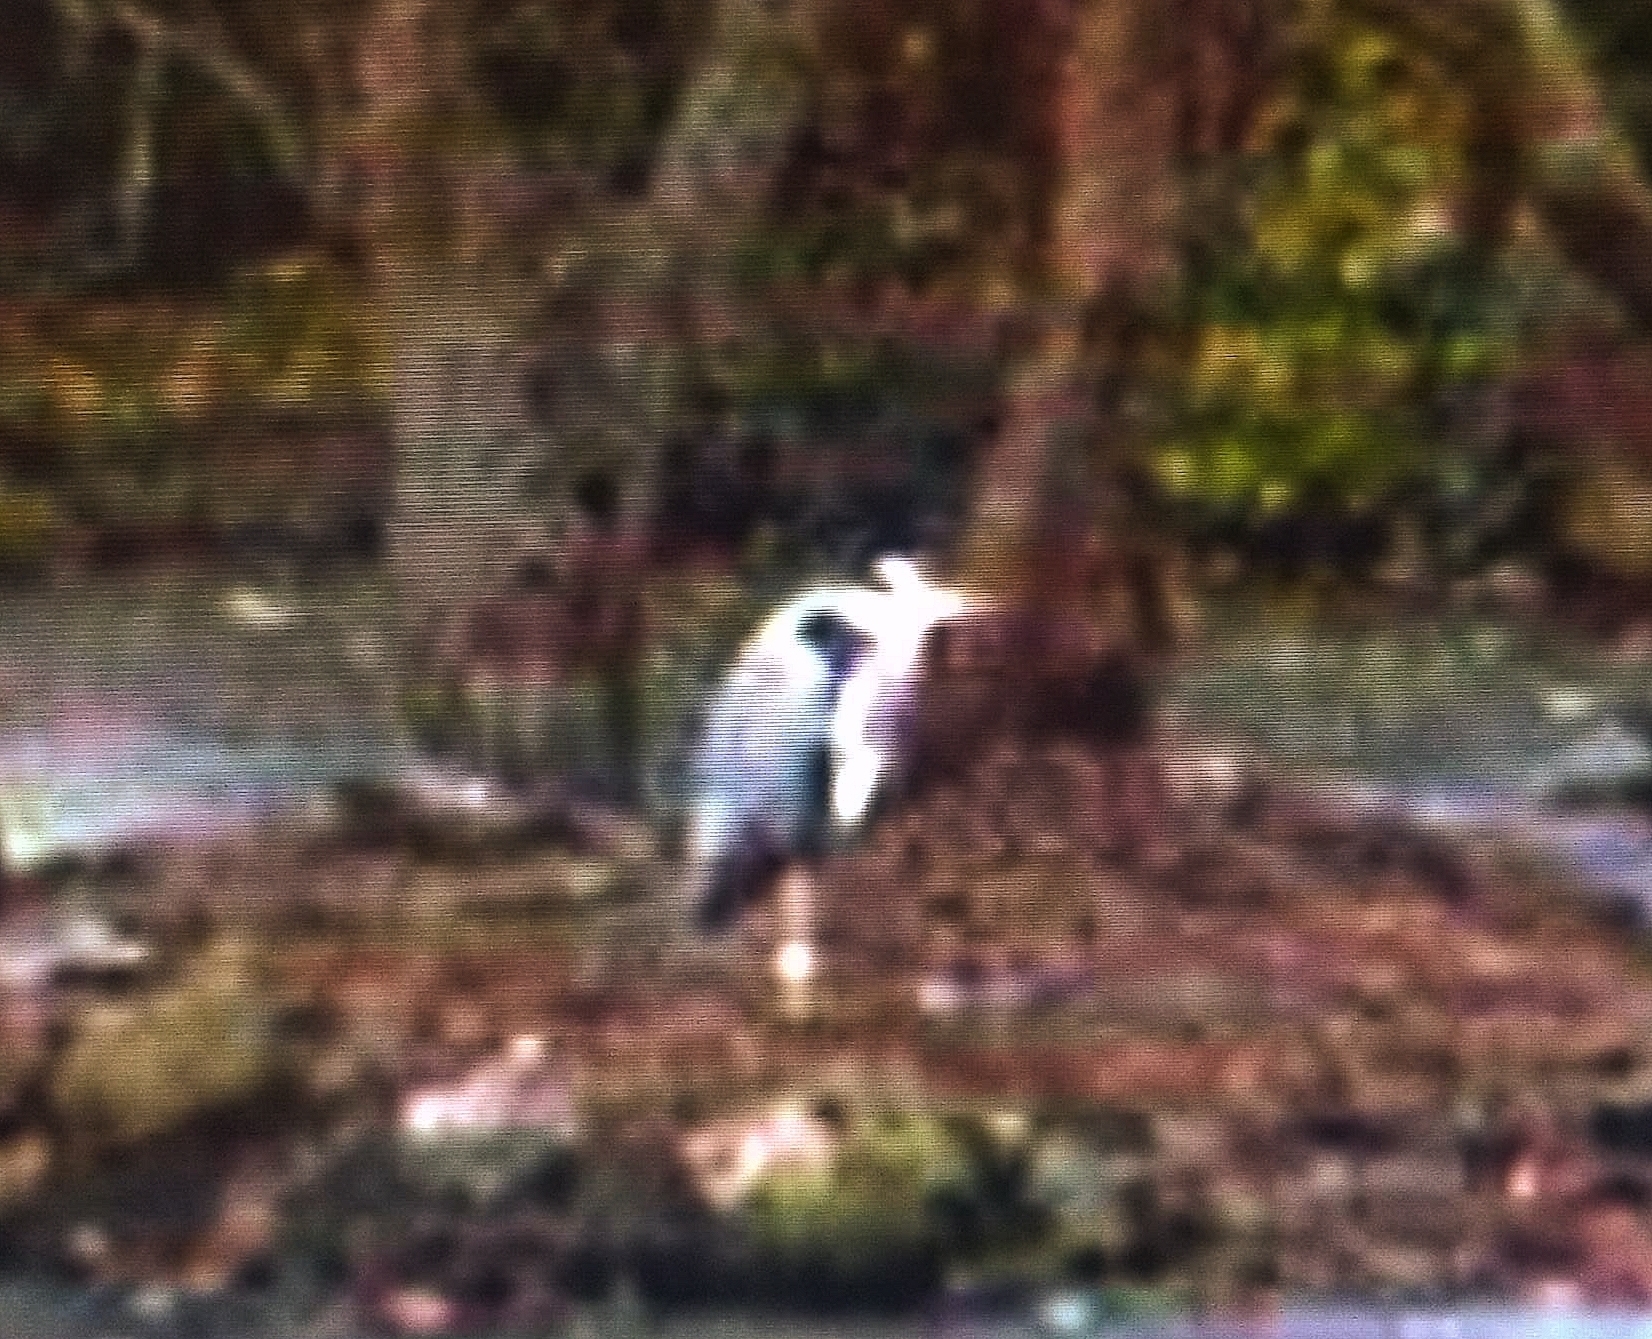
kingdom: Animalia
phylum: Chordata
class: Aves
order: Pelecaniformes
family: Ardeidae
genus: Ardea
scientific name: Ardea cinerea
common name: Grey heron
